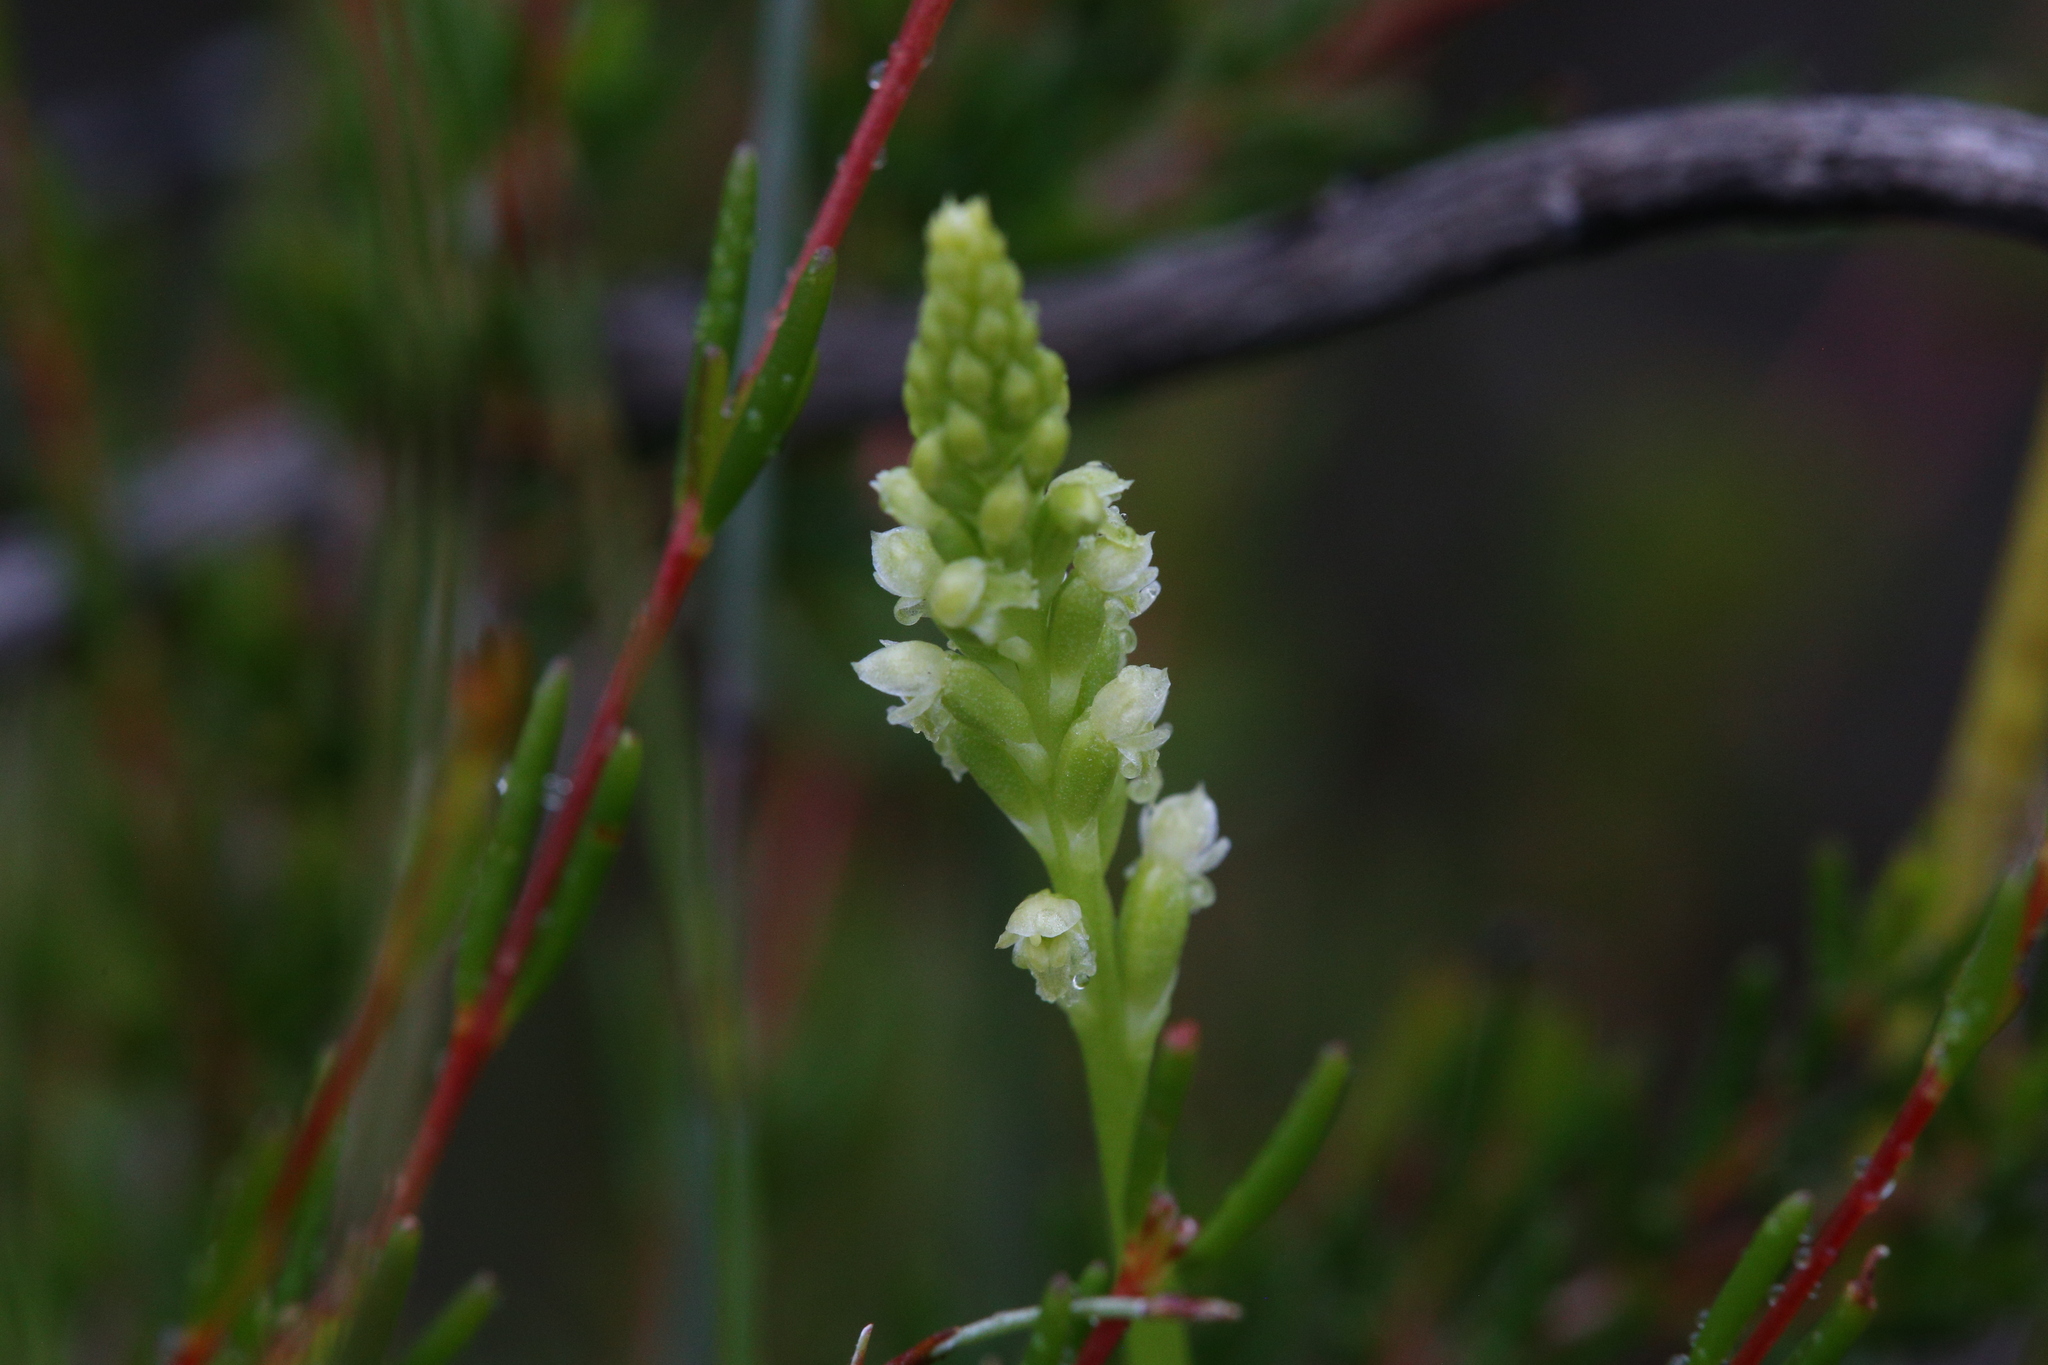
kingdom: Plantae
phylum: Tracheophyta
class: Liliopsida
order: Asparagales
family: Orchidaceae
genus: Microtis
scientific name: Microtis alboviridis
